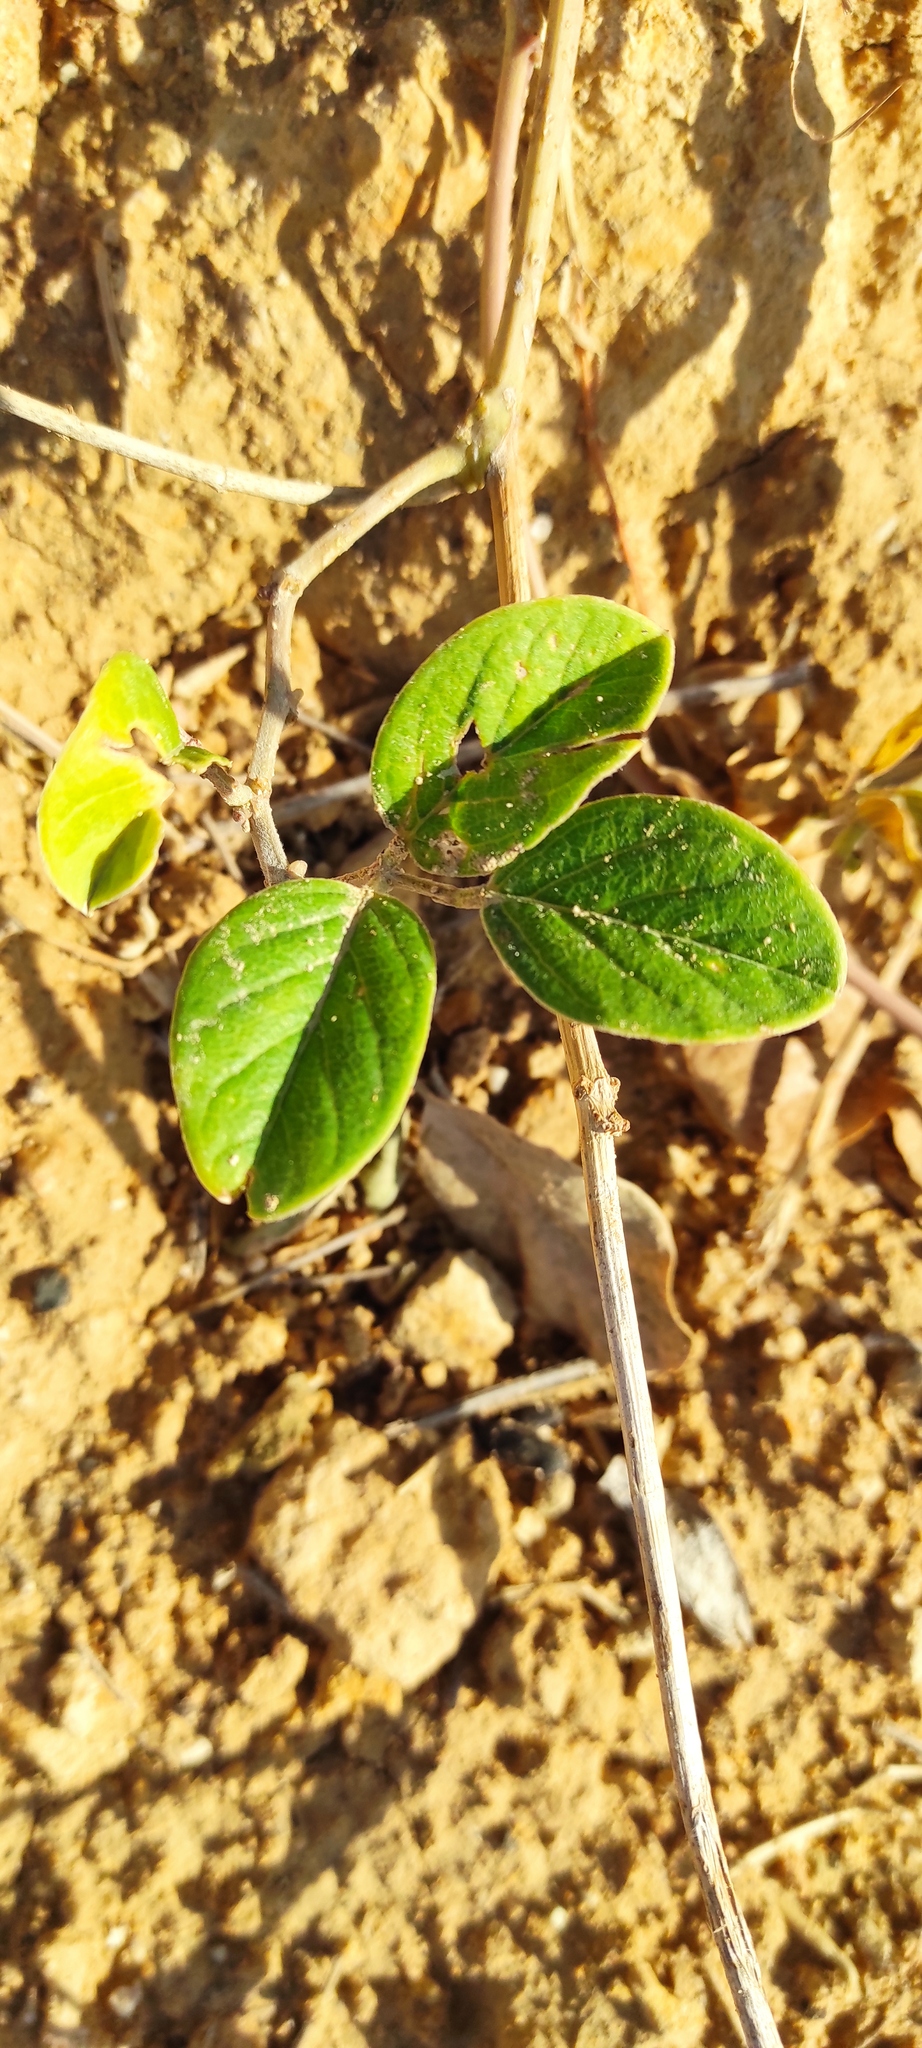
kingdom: Plantae
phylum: Tracheophyta
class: Magnoliopsida
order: Fabales
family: Fabaceae
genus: Canavalia
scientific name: Canavalia rosea
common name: Beach-bean
